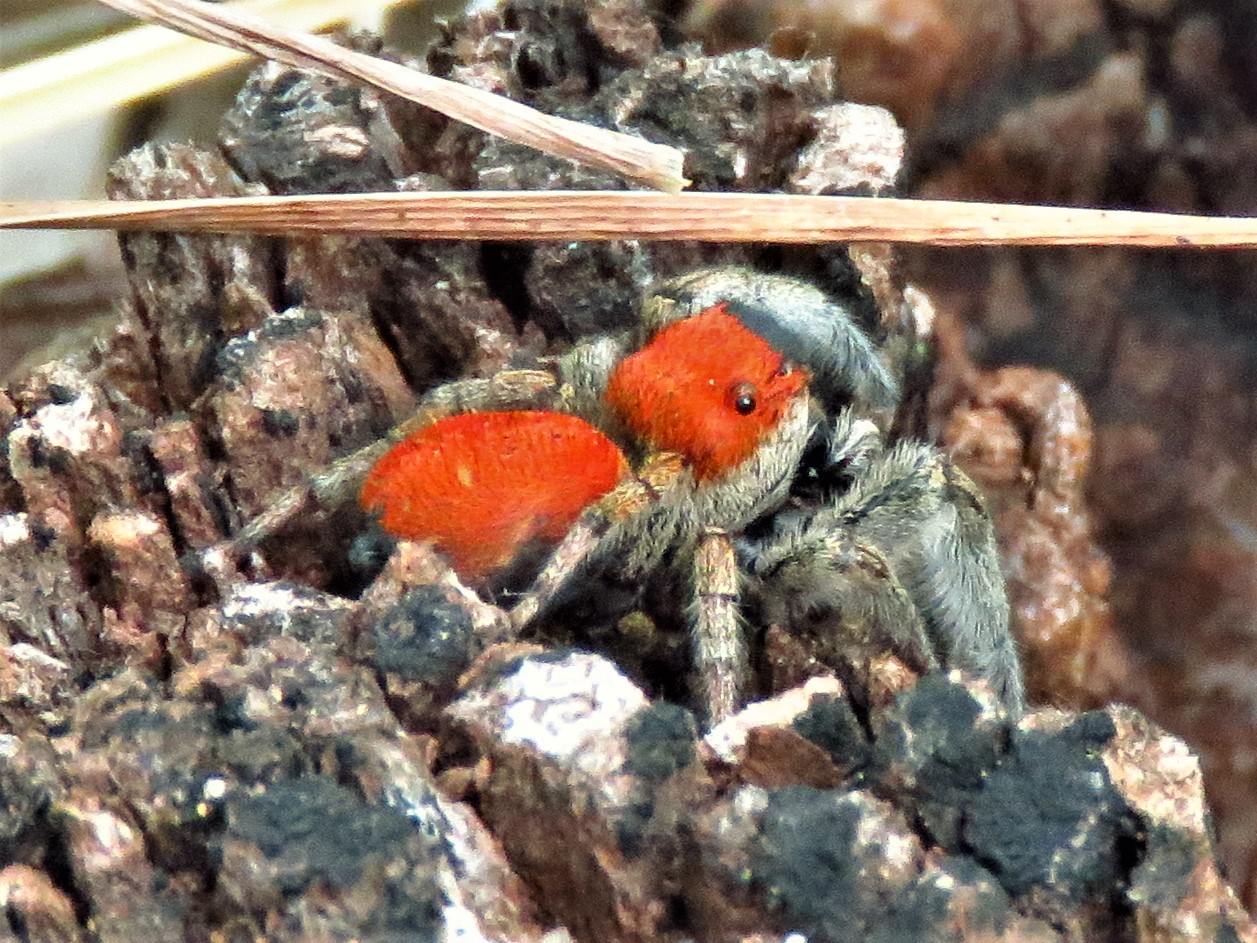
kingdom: Animalia
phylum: Arthropoda
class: Arachnida
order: Araneae
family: Salticidae
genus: Phidippus
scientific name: Phidippus whitmani
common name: Whitman's jumping spider
